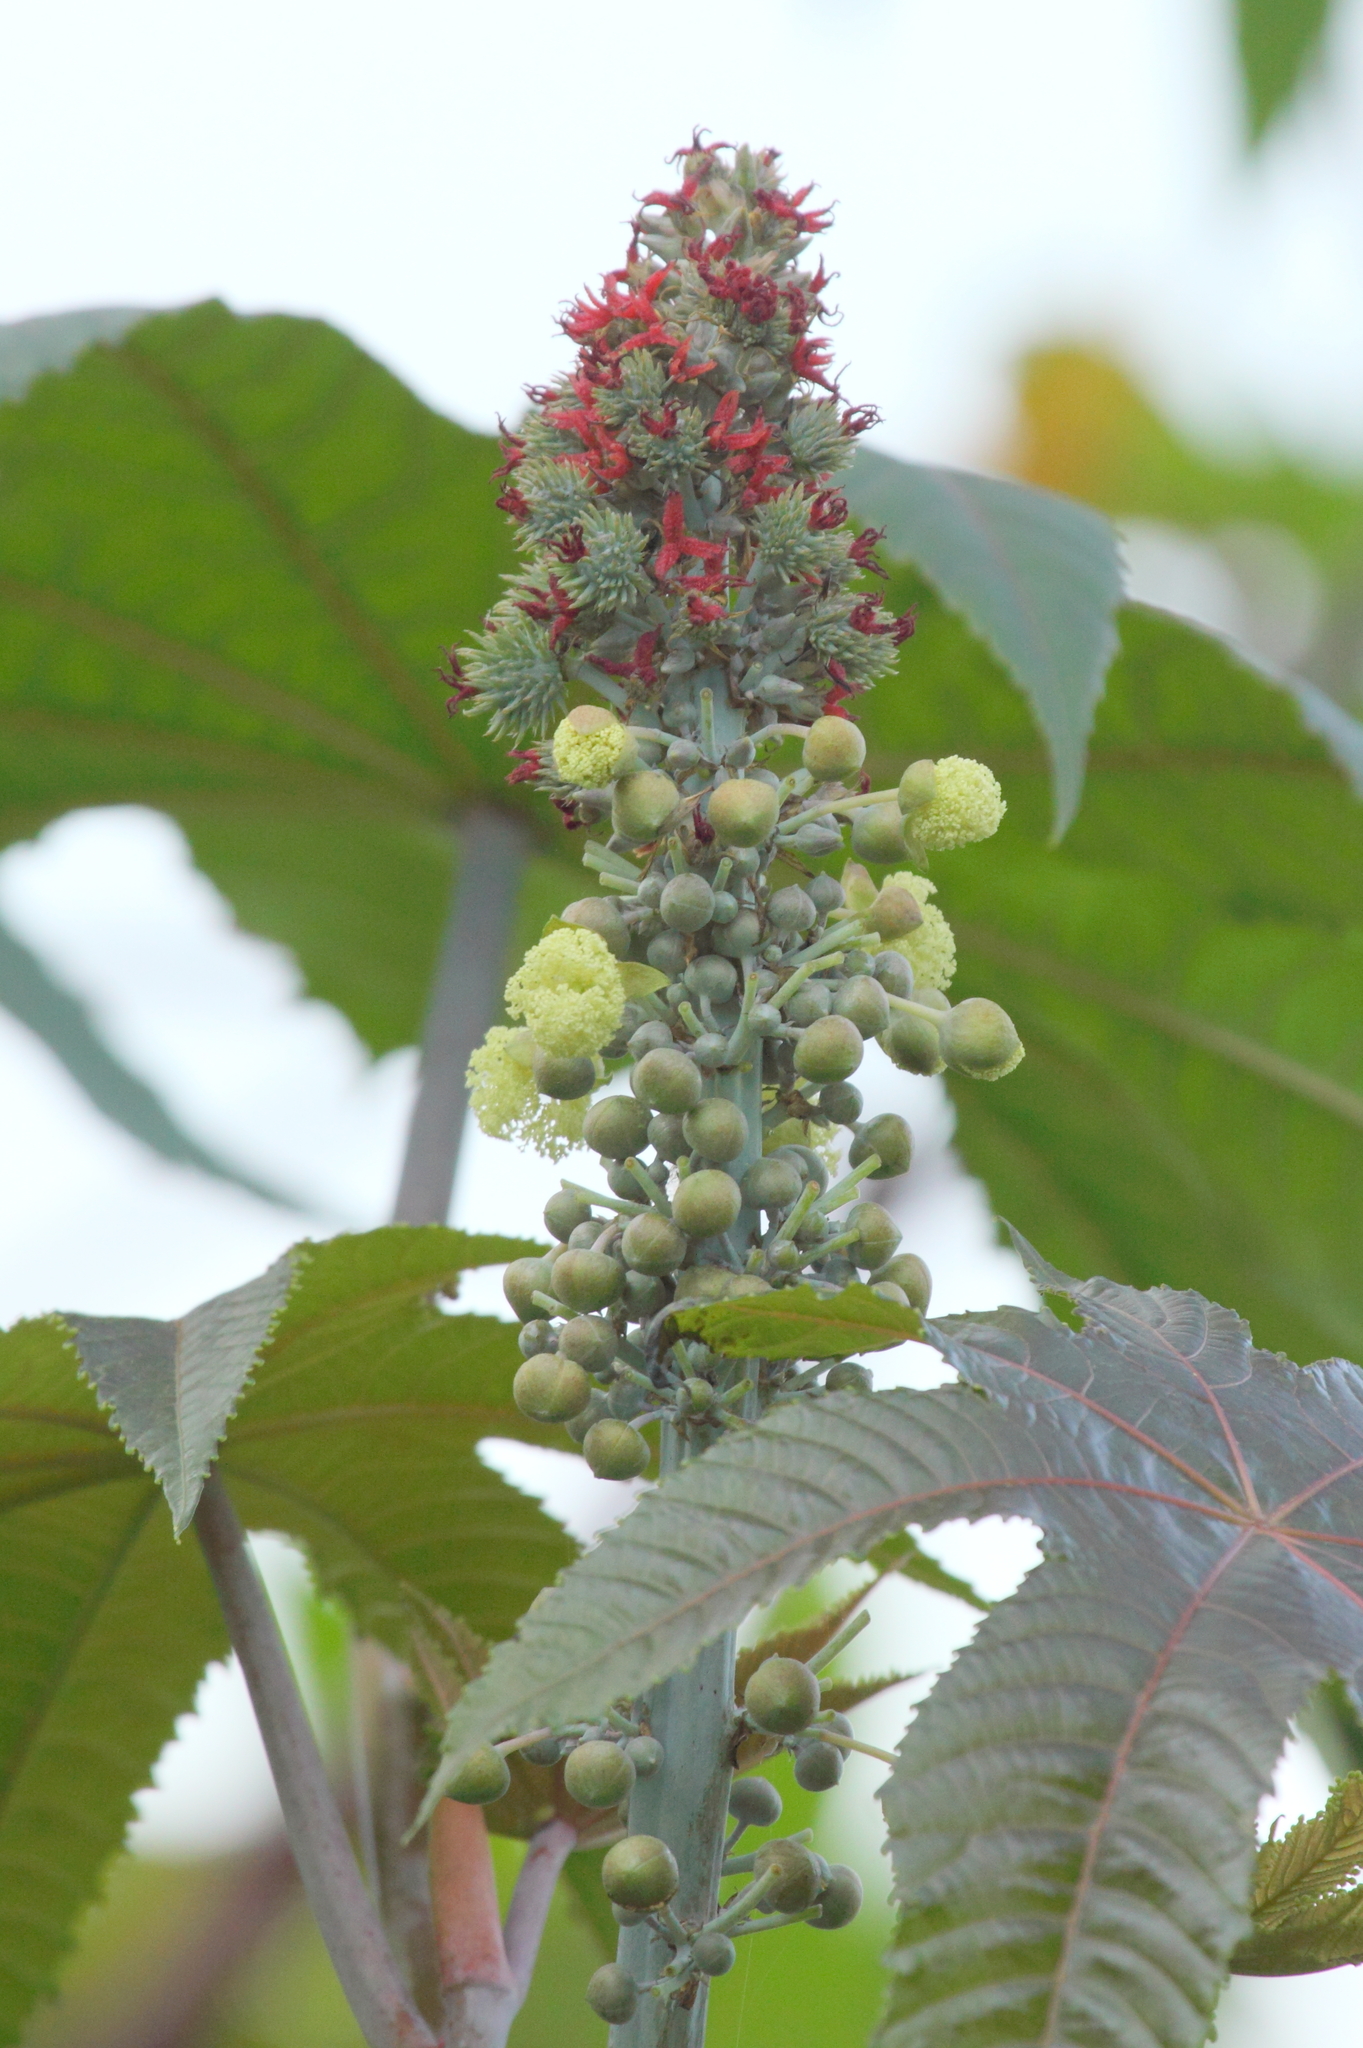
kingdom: Plantae
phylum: Tracheophyta
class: Magnoliopsida
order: Malpighiales
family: Euphorbiaceae
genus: Ricinus
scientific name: Ricinus communis
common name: Castor-oil-plant
